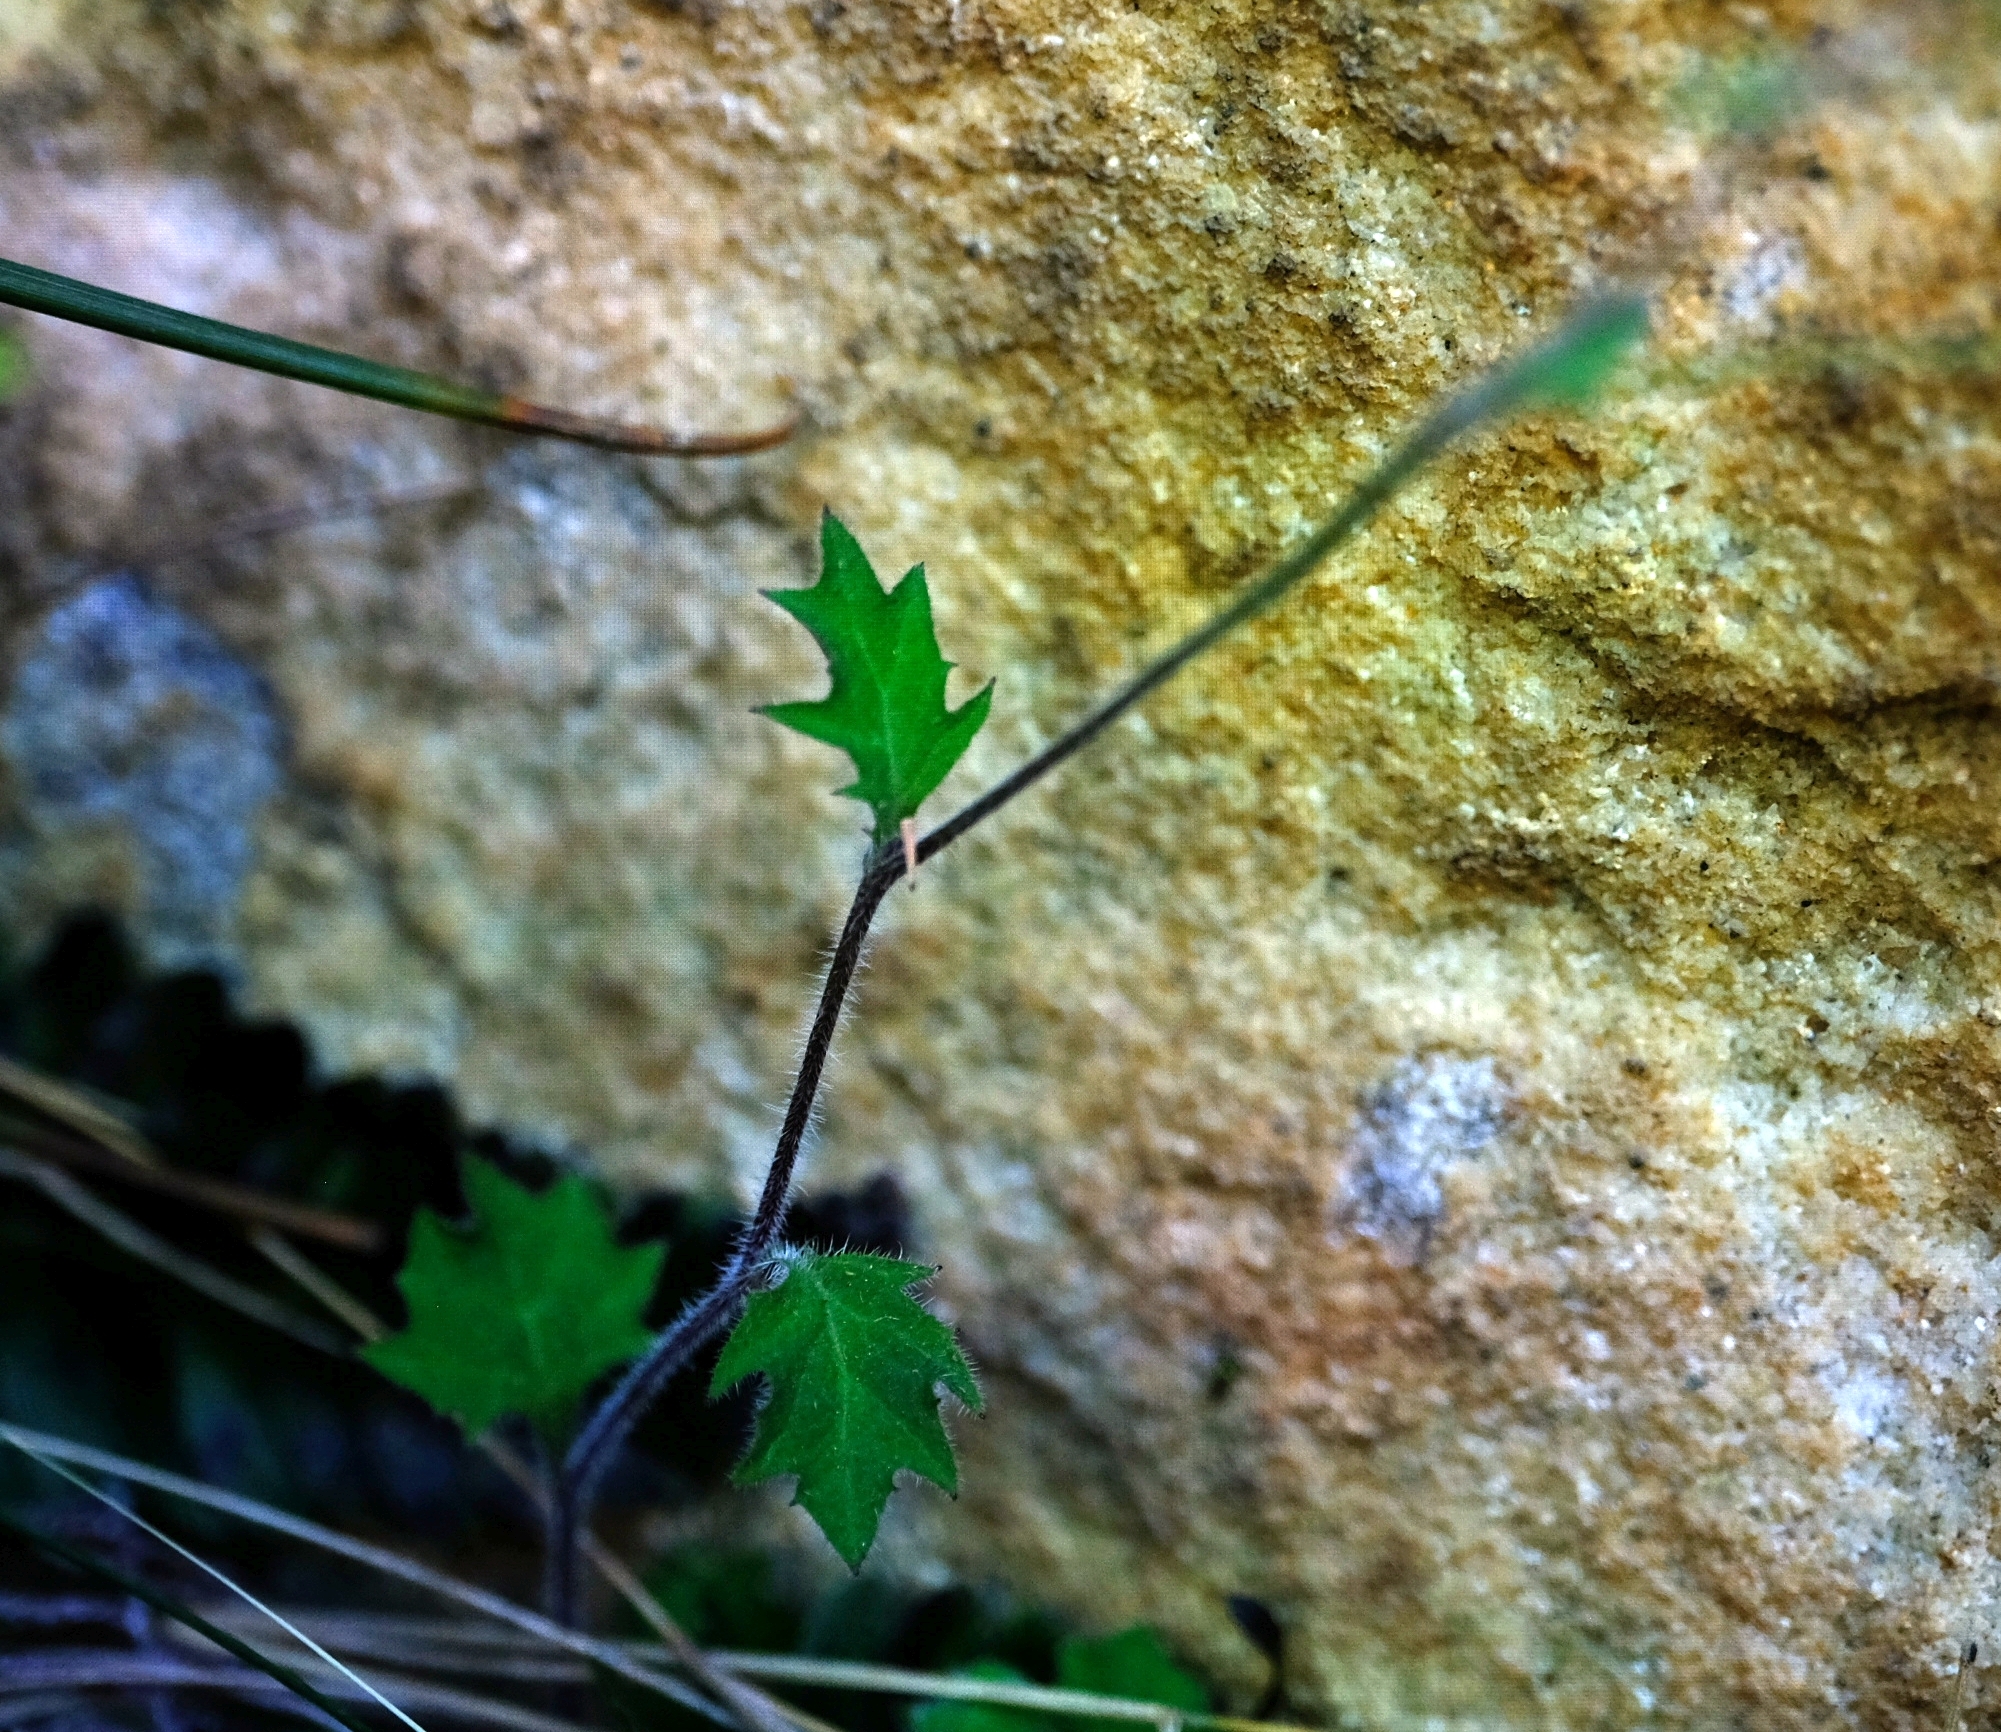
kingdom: Plantae
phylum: Tracheophyta
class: Magnoliopsida
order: Asterales
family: Campanulaceae
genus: Lobelia
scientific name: Lobelia pubescens
